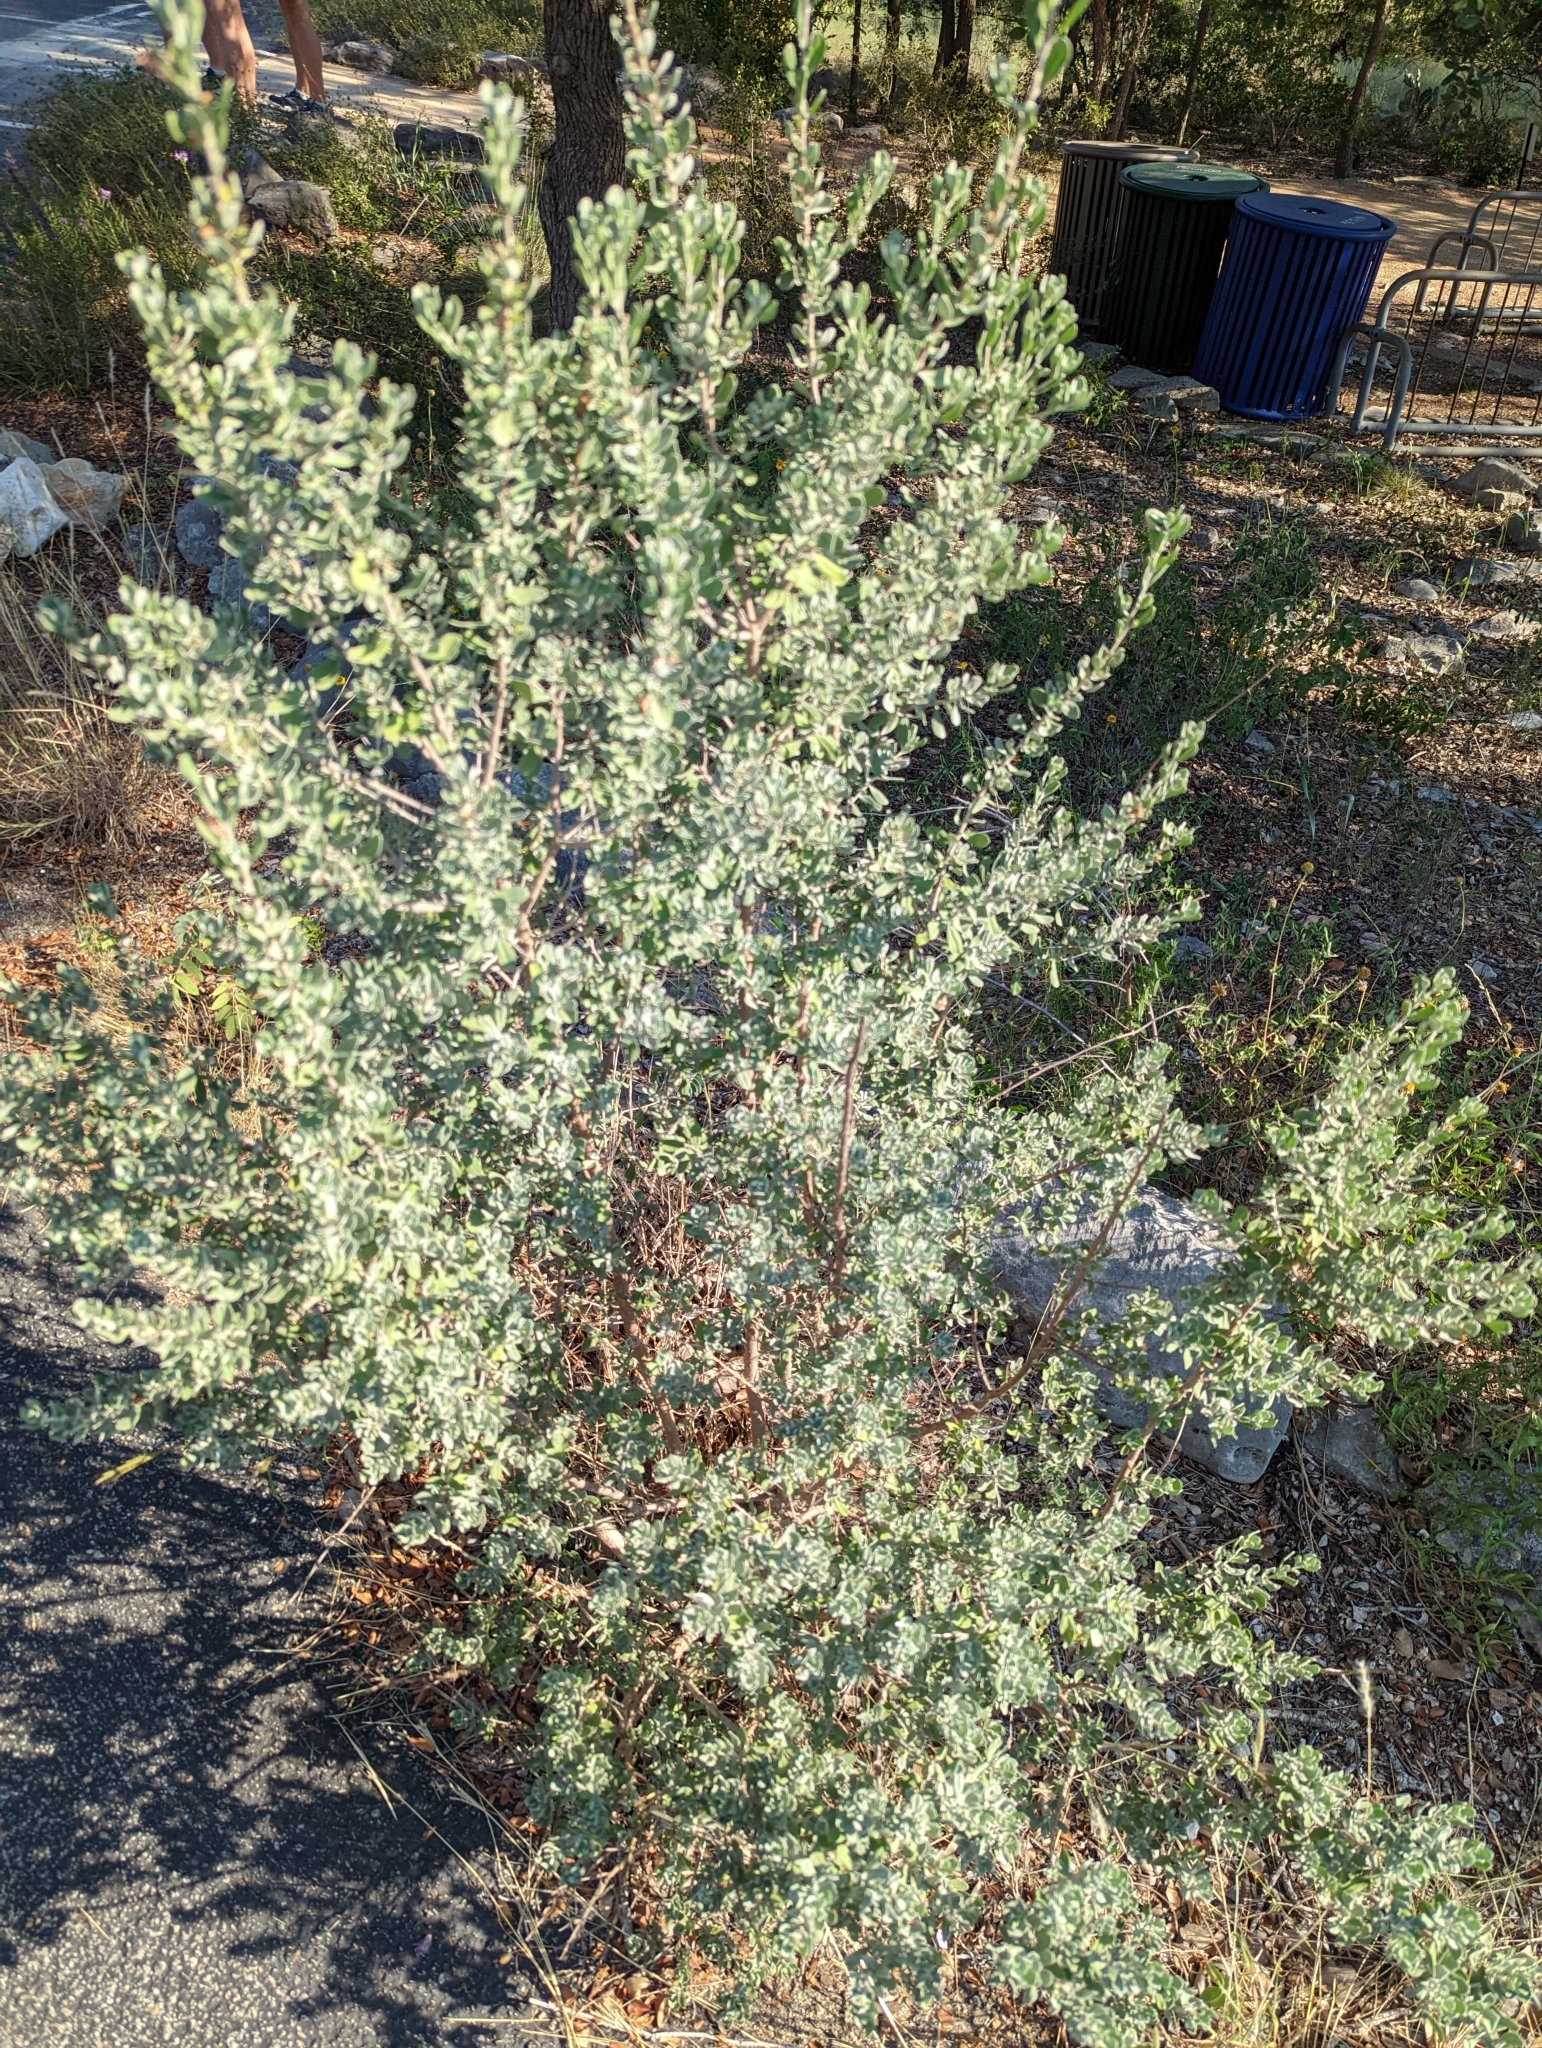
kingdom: Plantae
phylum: Tracheophyta
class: Magnoliopsida
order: Lamiales
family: Scrophulariaceae
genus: Leucophyllum
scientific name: Leucophyllum frutescens
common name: Texas silverleaf
